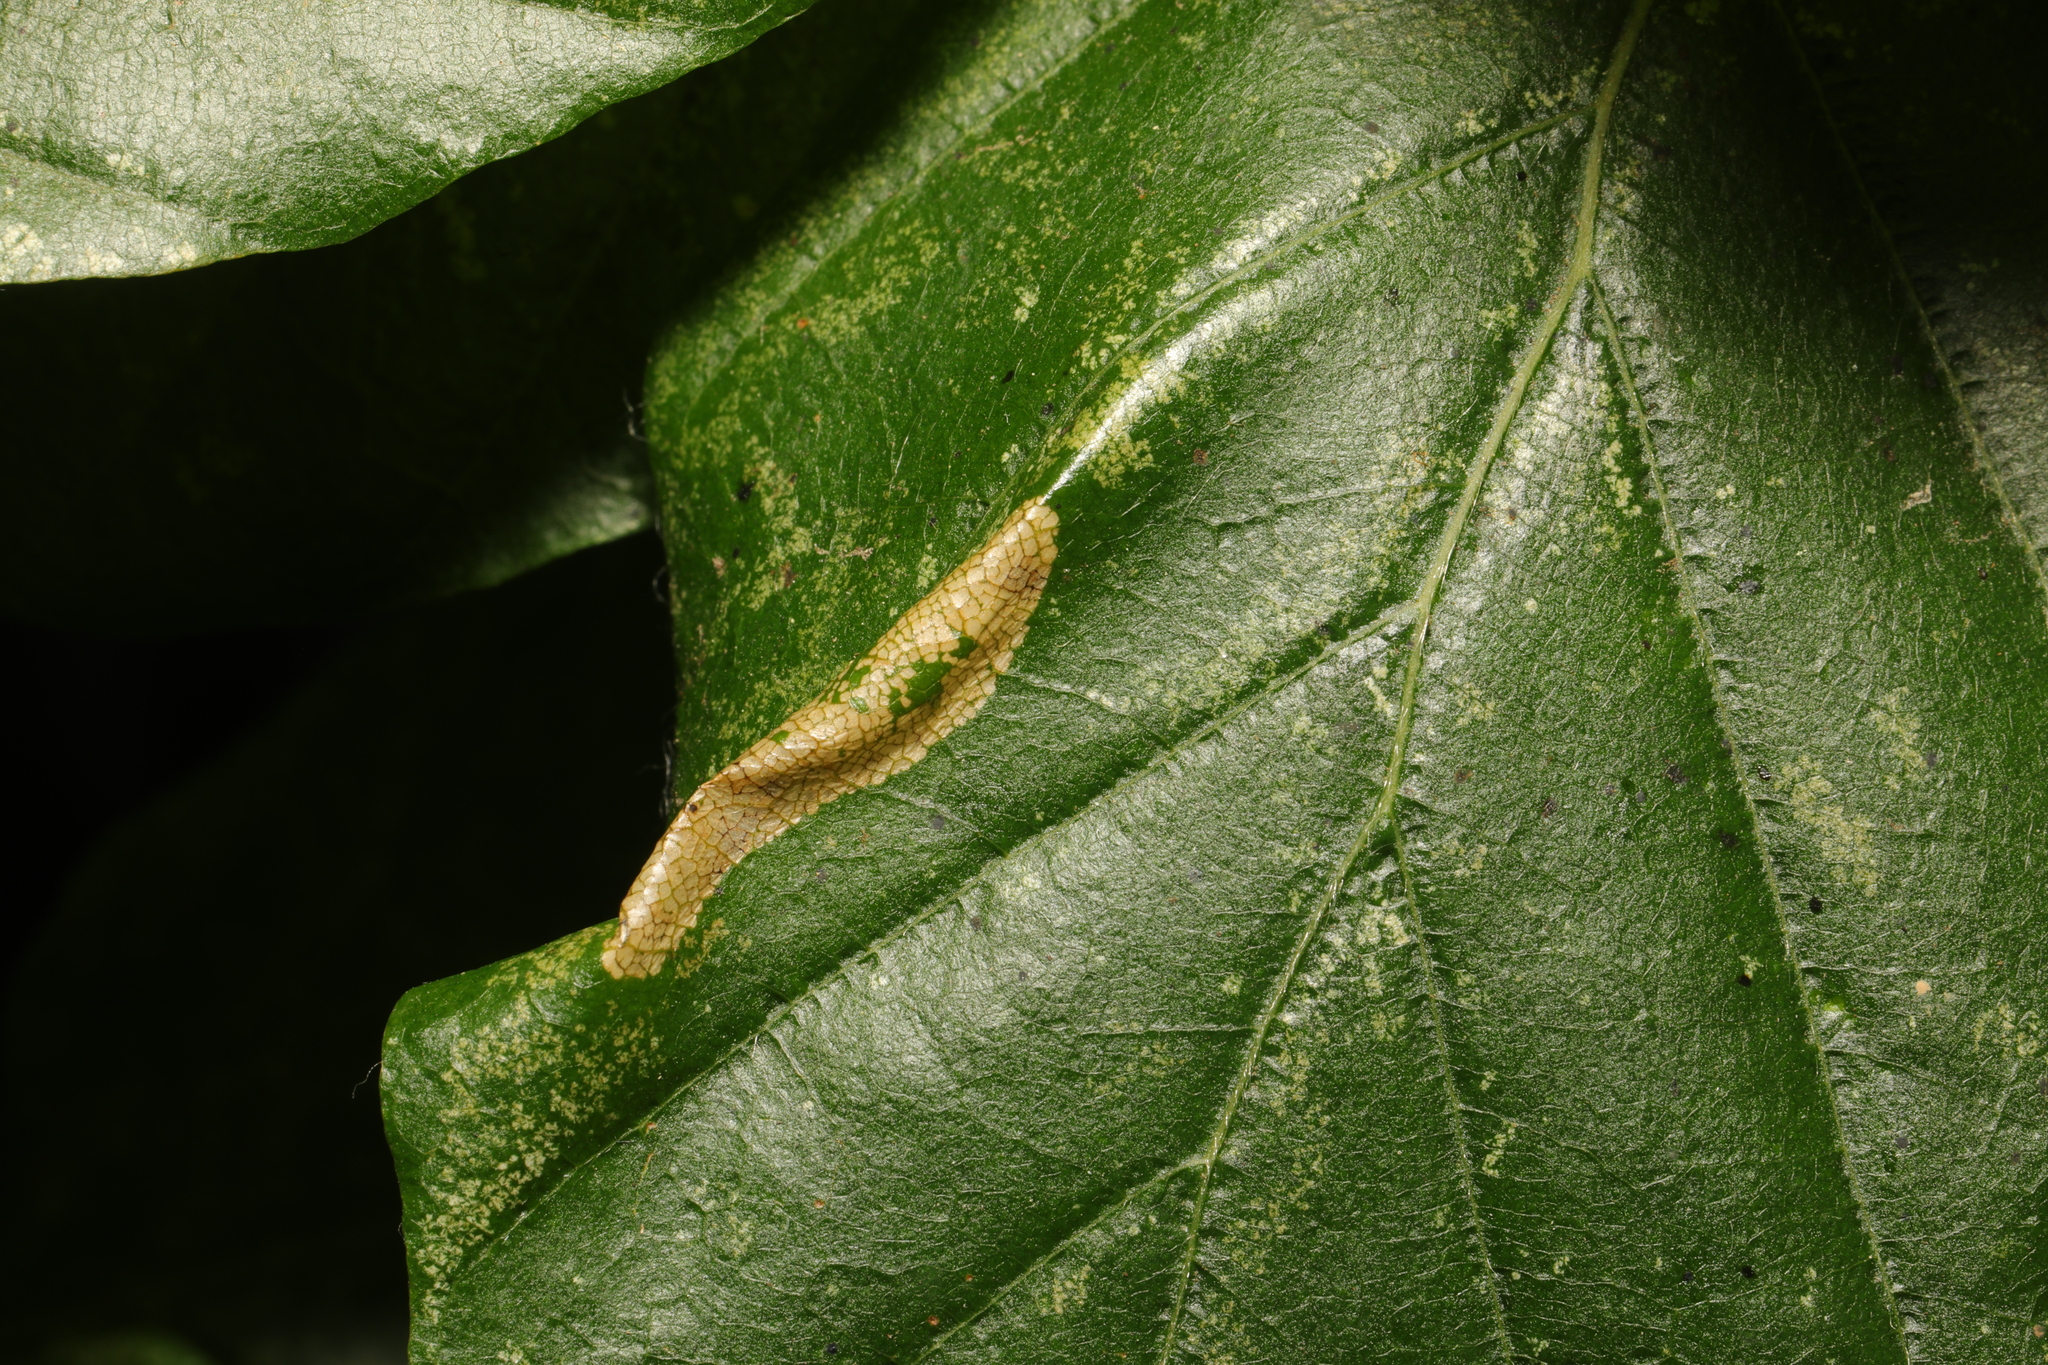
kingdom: Animalia
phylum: Arthropoda
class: Insecta
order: Lepidoptera
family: Gracillariidae
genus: Phyllonorycter
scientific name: Phyllonorycter maestingella
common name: Beech midget
